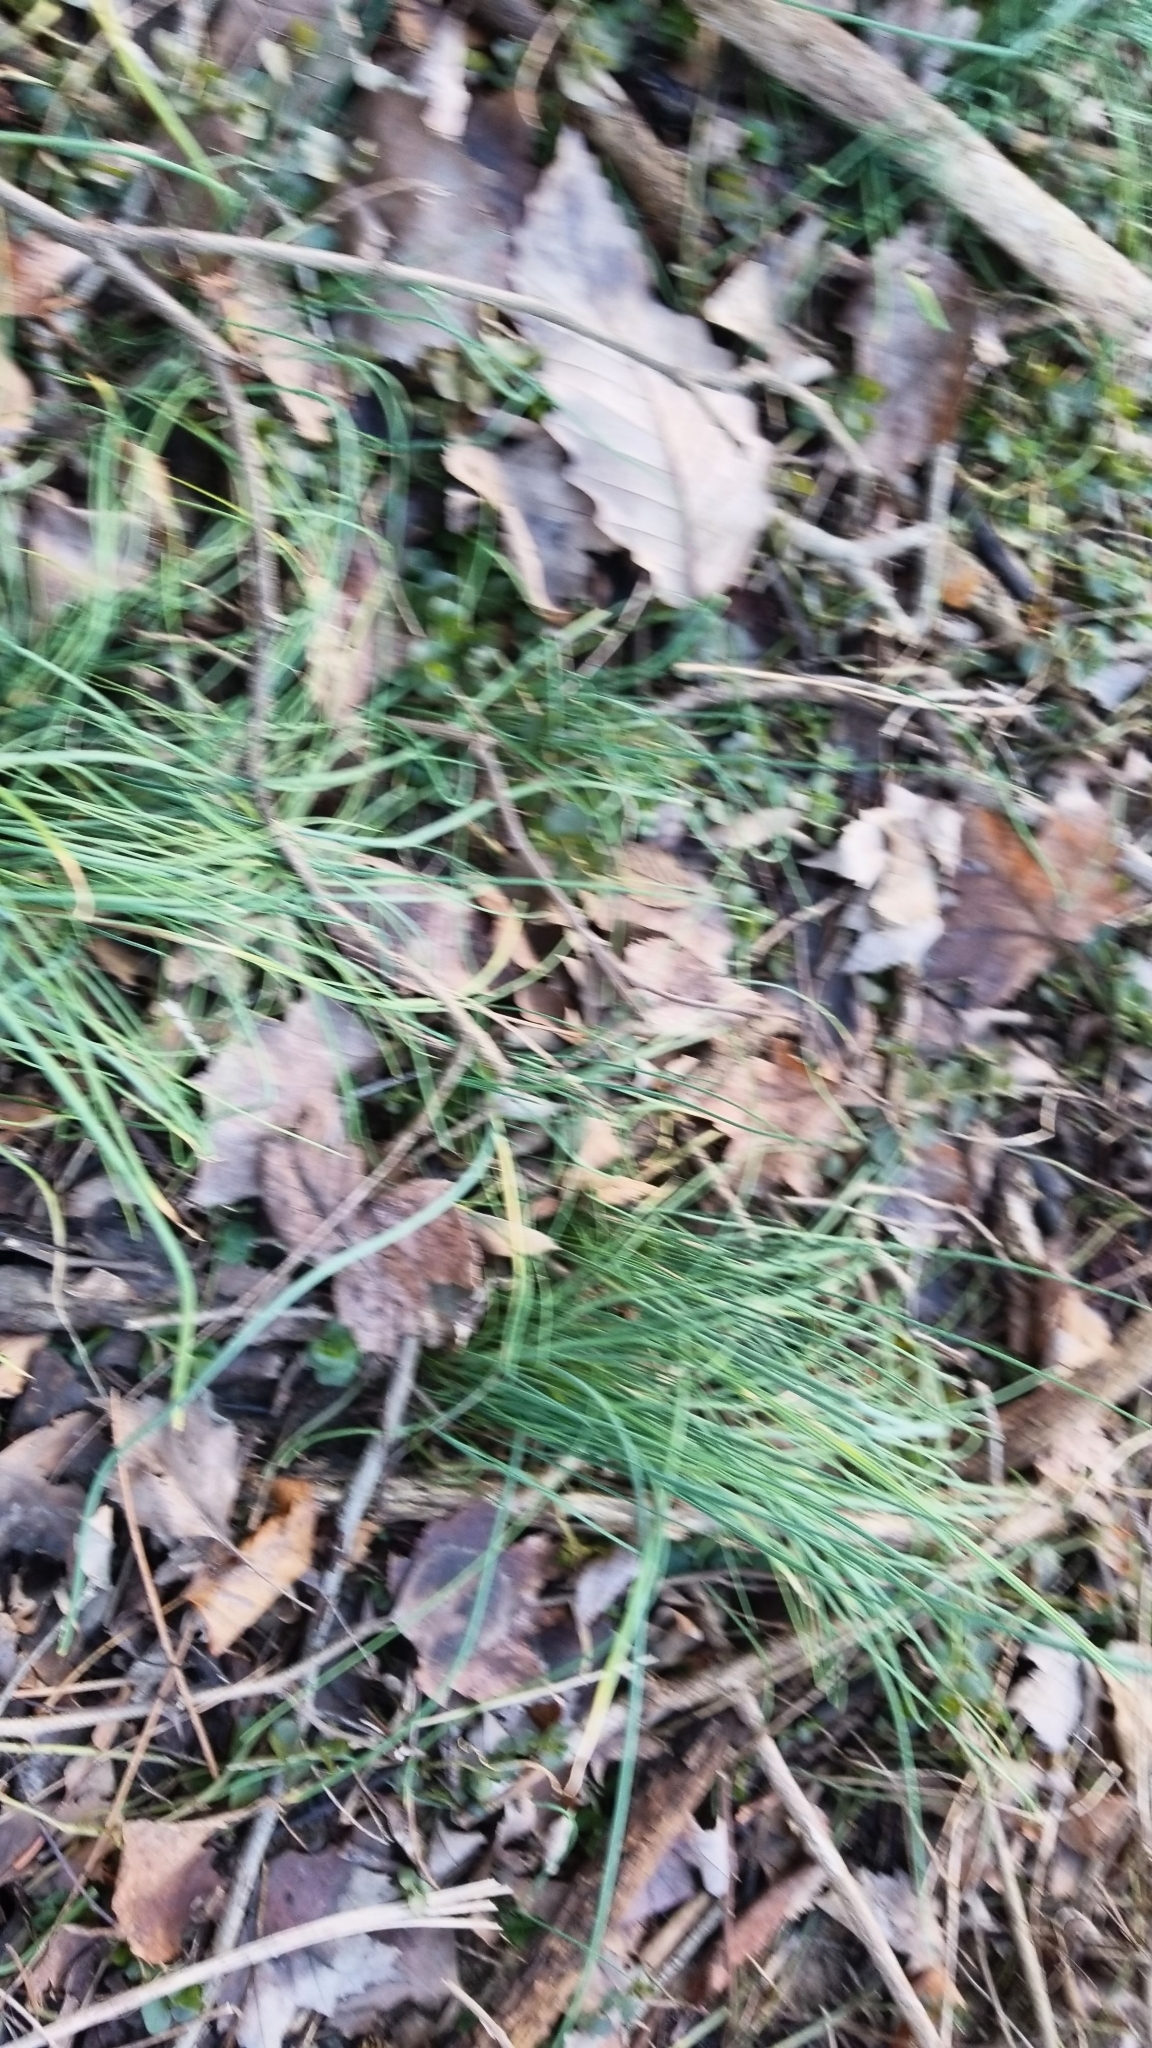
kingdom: Plantae
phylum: Tracheophyta
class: Liliopsida
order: Asparagales
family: Amaryllidaceae
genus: Allium
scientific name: Allium vineale
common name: Crow garlic
